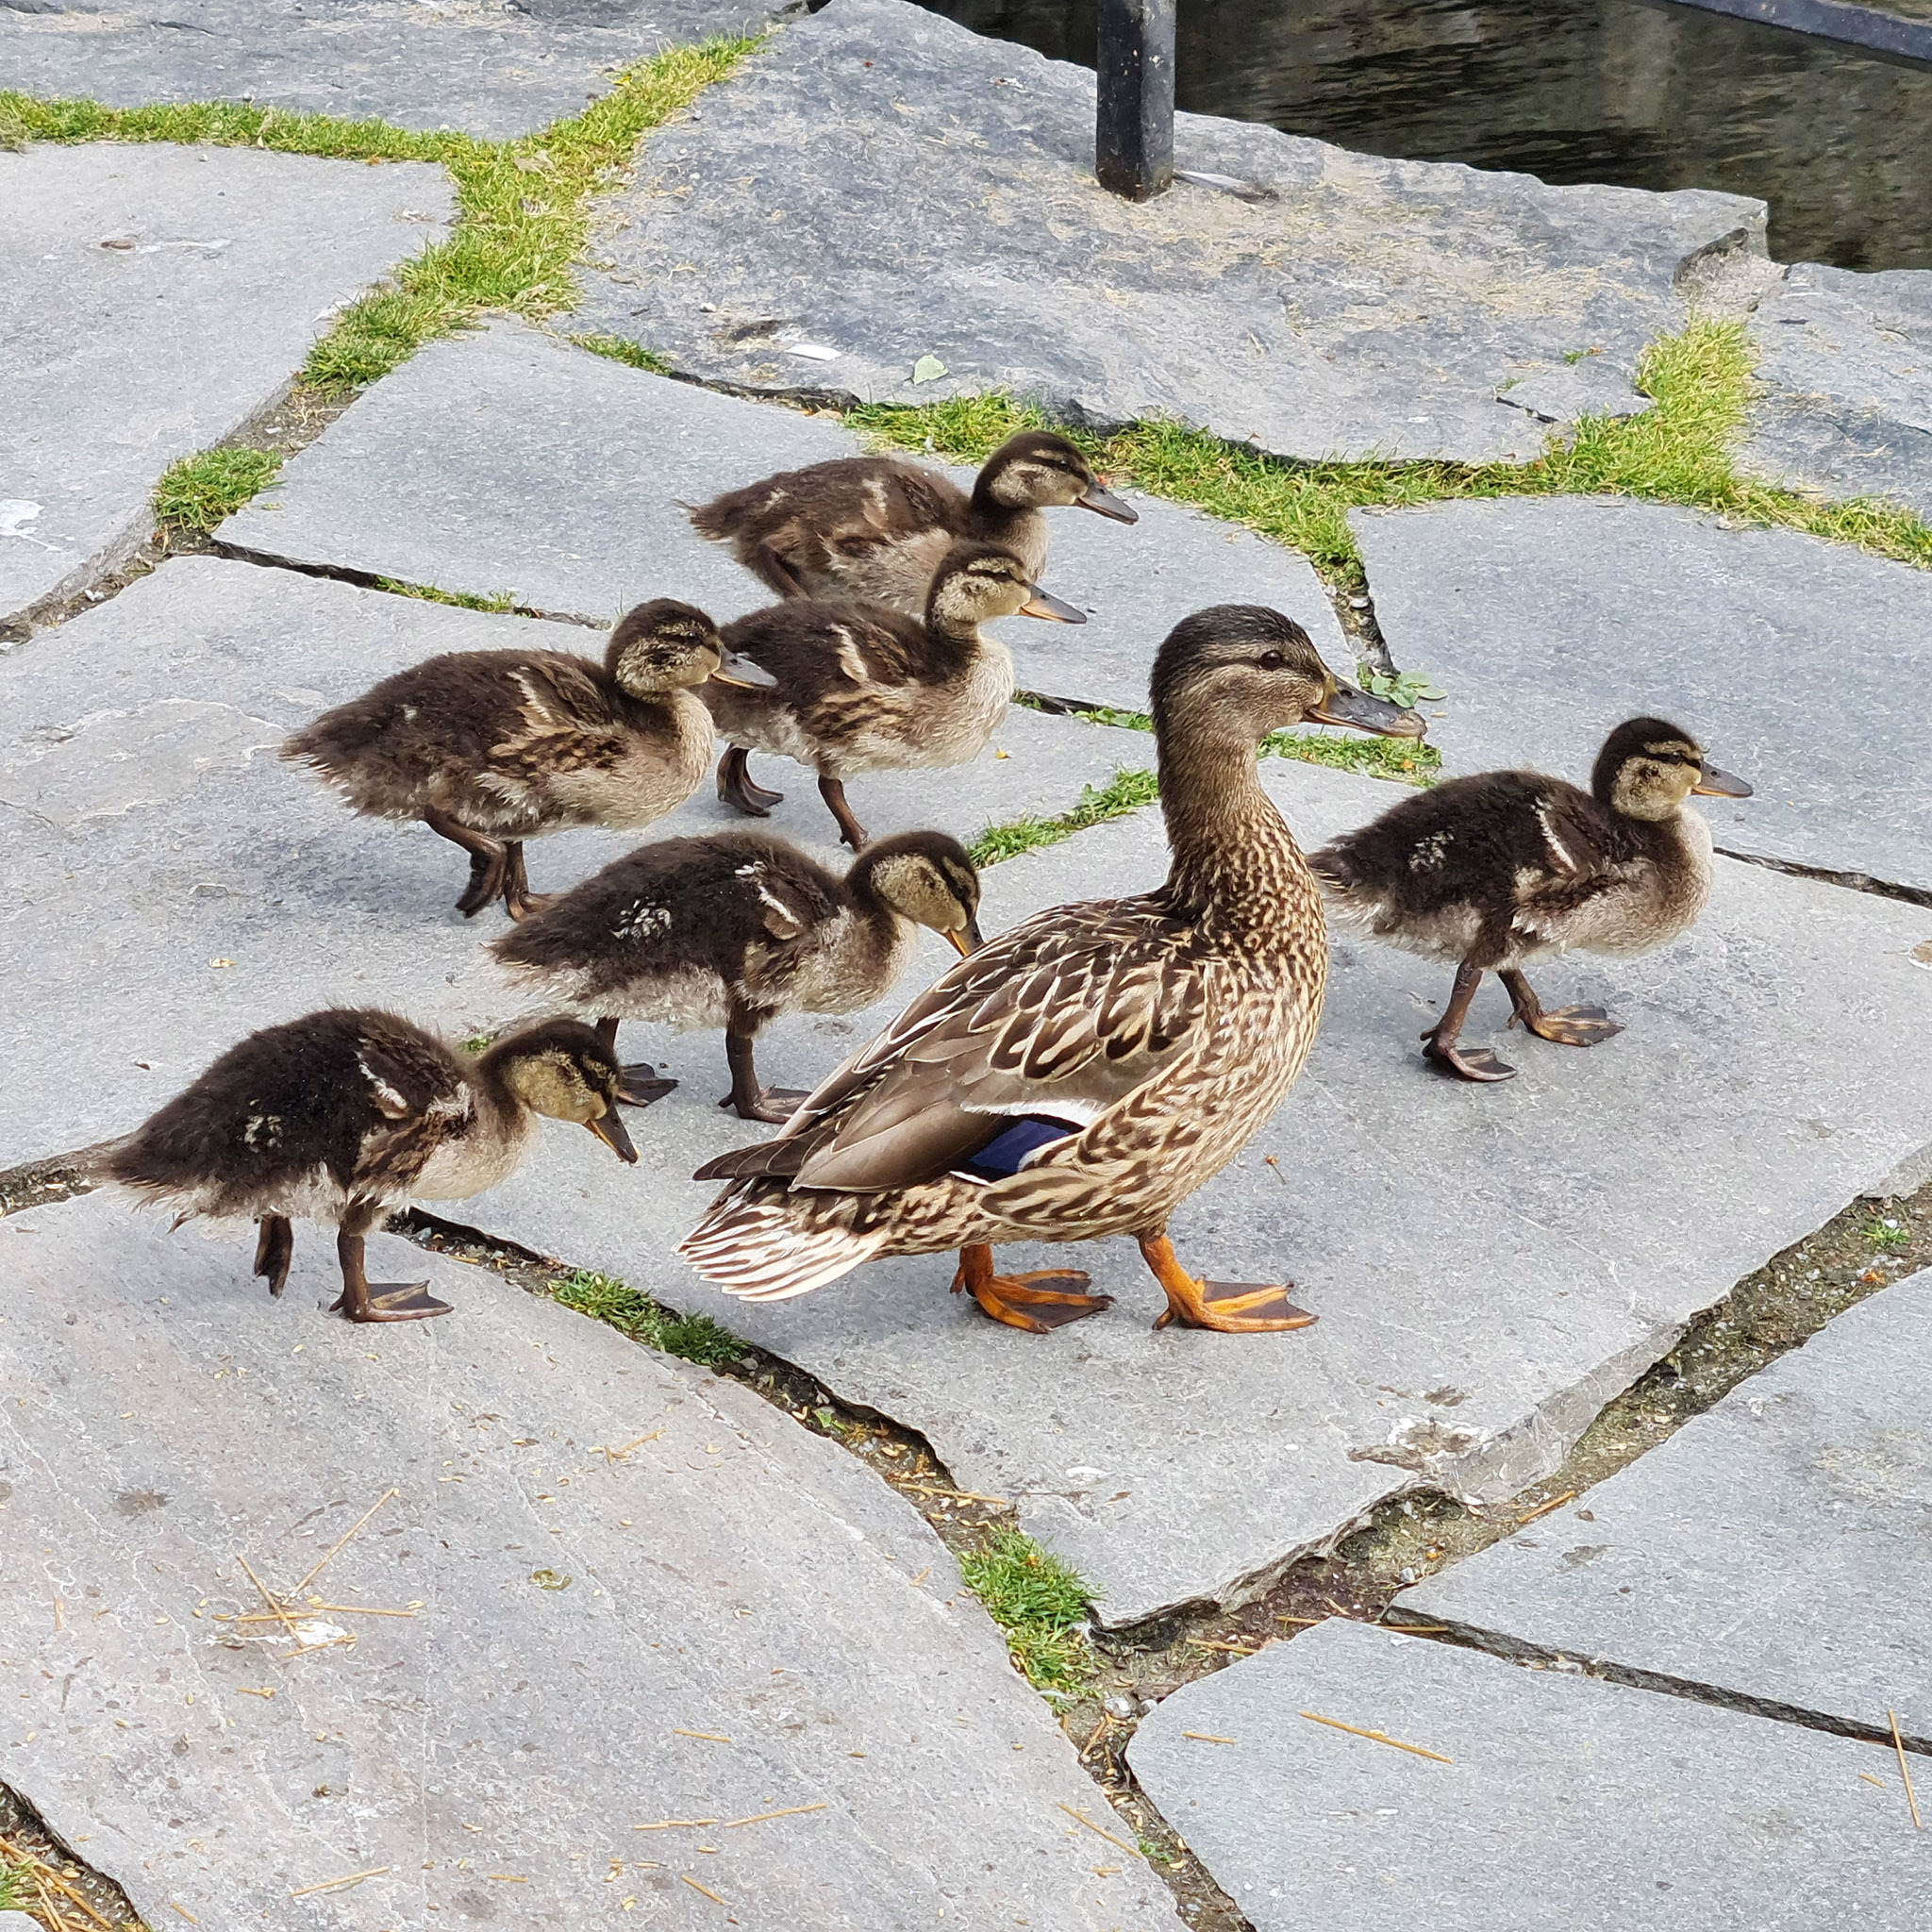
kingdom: Animalia
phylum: Chordata
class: Aves
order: Anseriformes
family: Anatidae
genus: Anas
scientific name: Anas platyrhynchos
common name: Mallard
